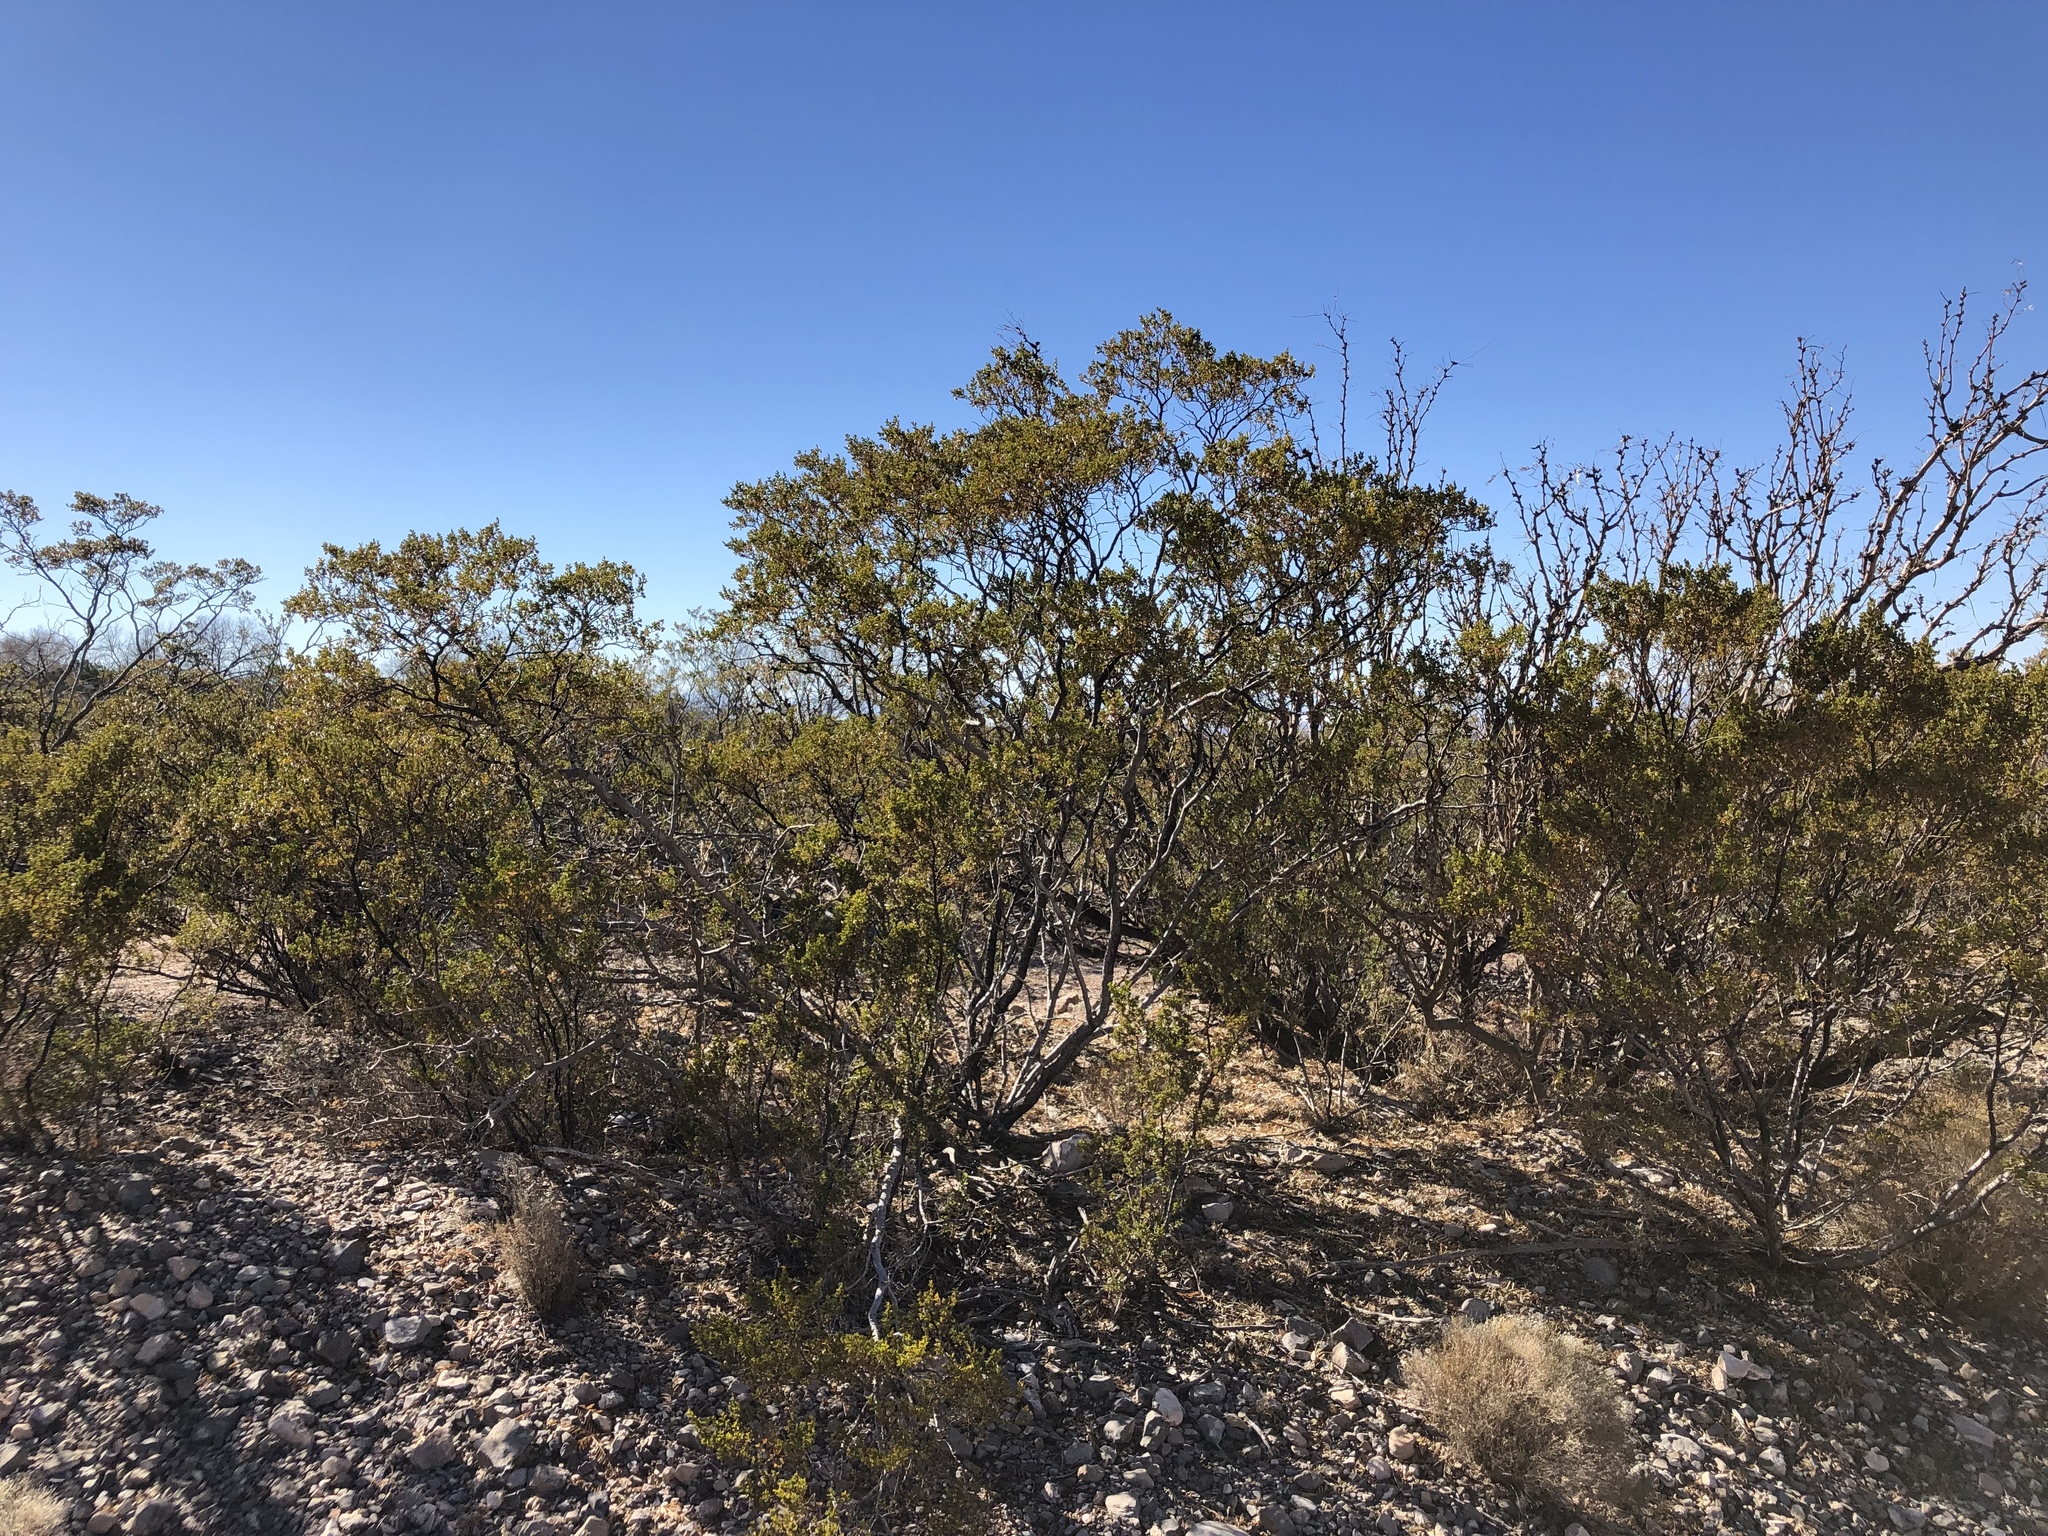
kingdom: Plantae
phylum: Tracheophyta
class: Magnoliopsida
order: Zygophyllales
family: Zygophyllaceae
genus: Larrea
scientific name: Larrea tridentata
